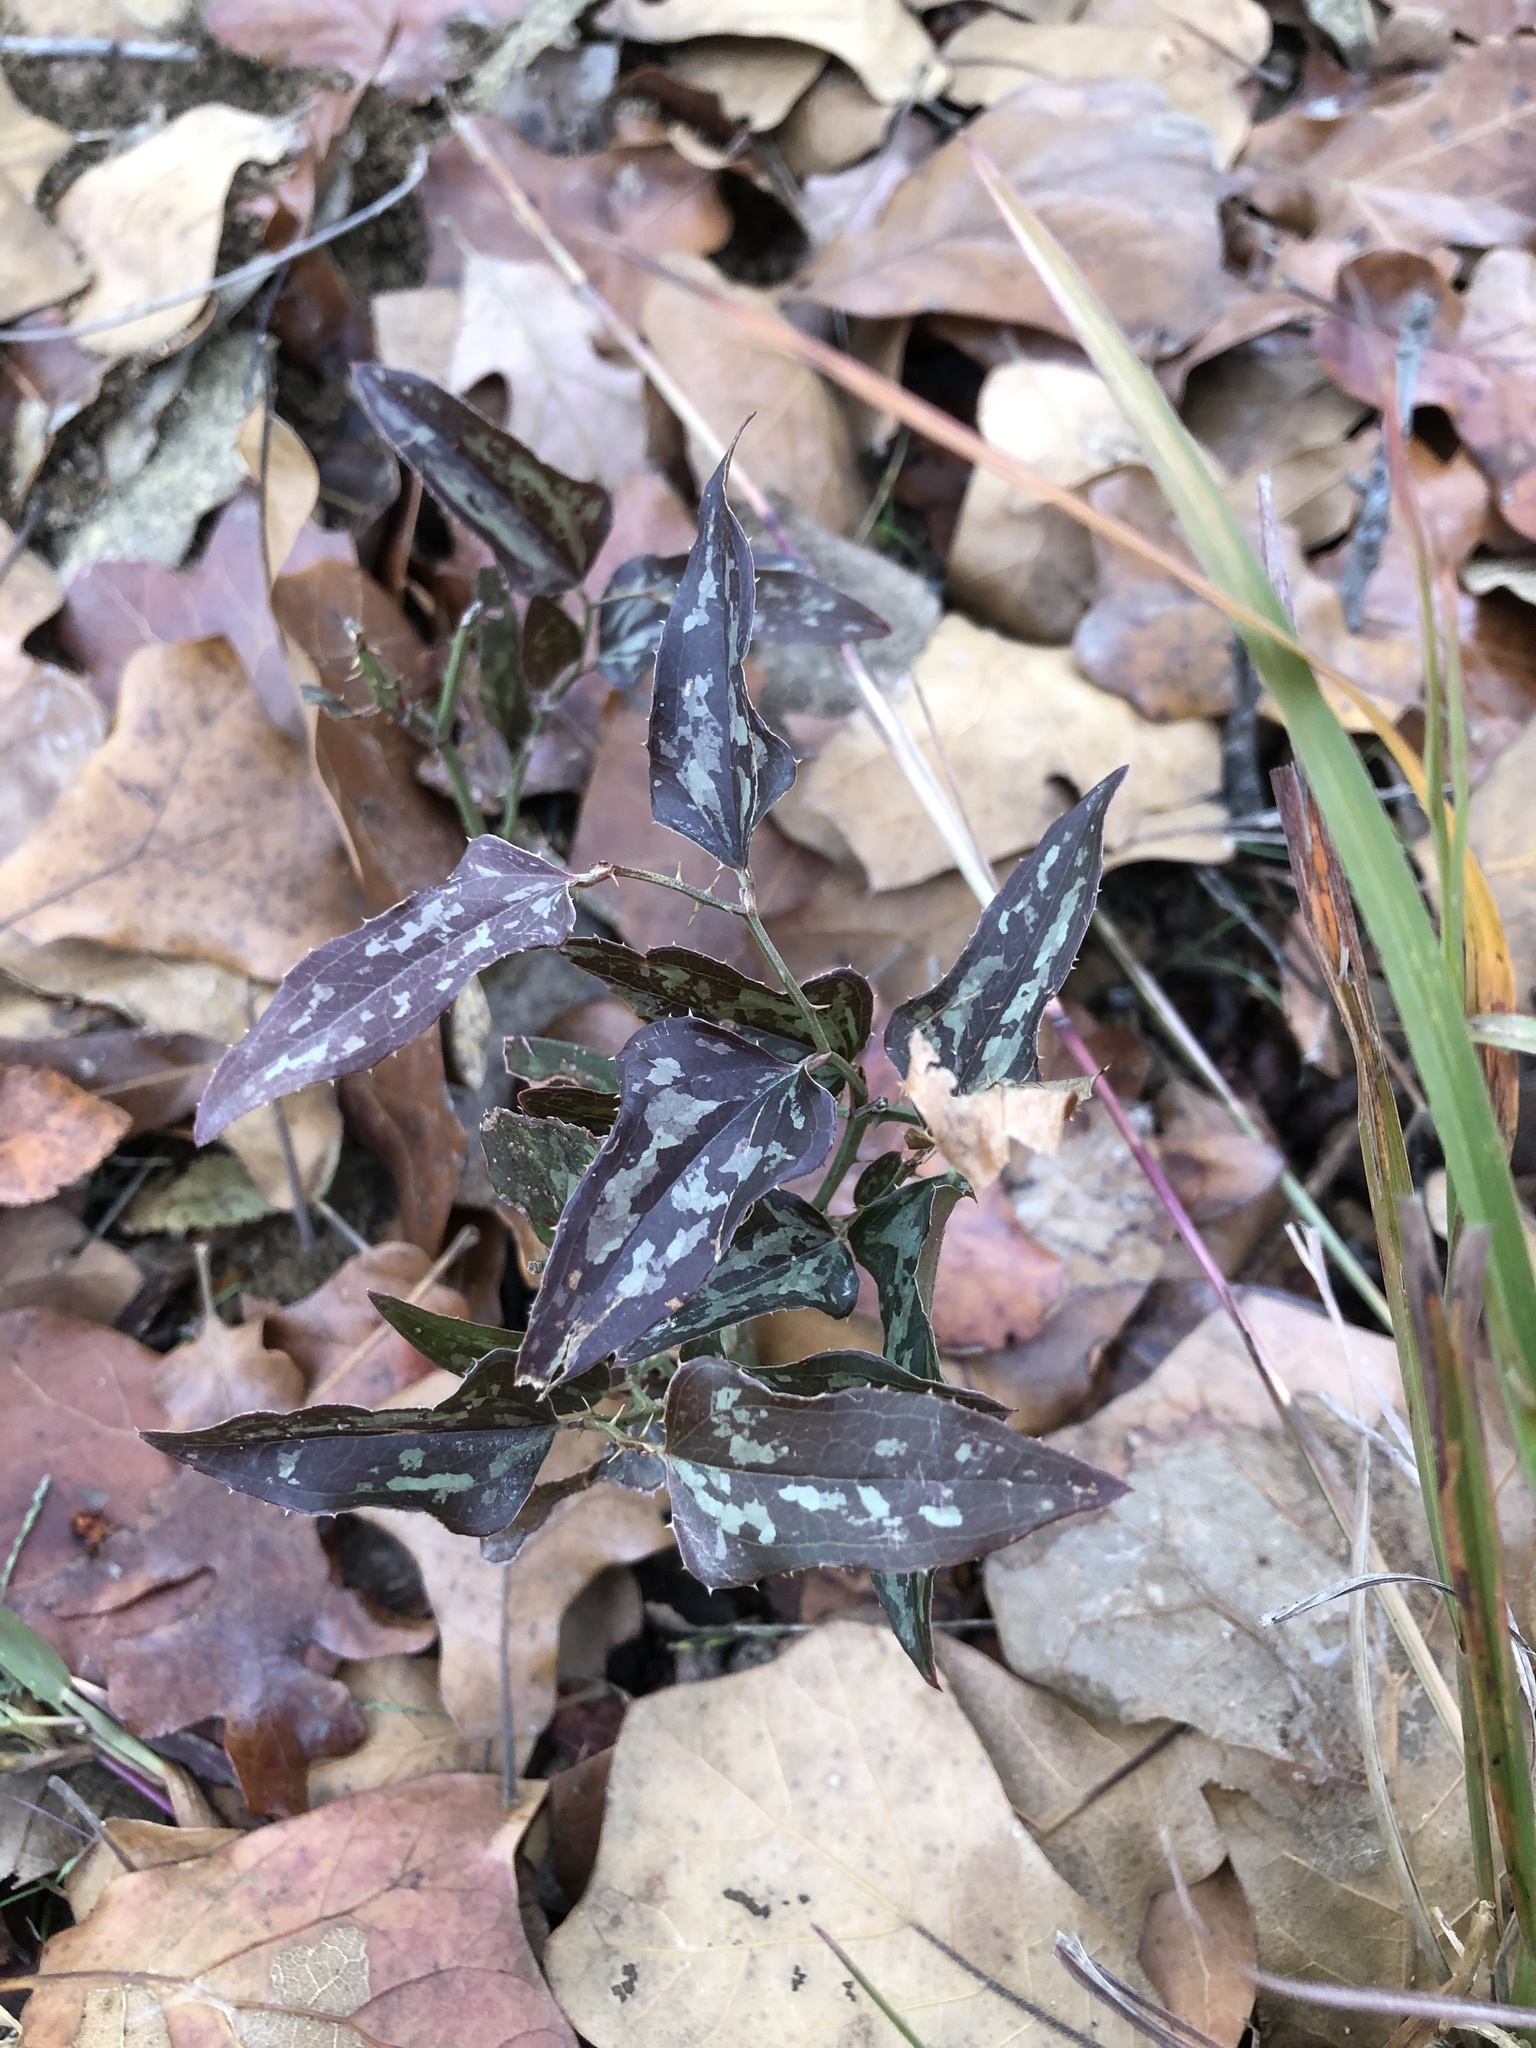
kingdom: Plantae
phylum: Tracheophyta
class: Liliopsida
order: Liliales
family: Smilacaceae
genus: Smilax
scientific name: Smilax bona-nox
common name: Catbrier
